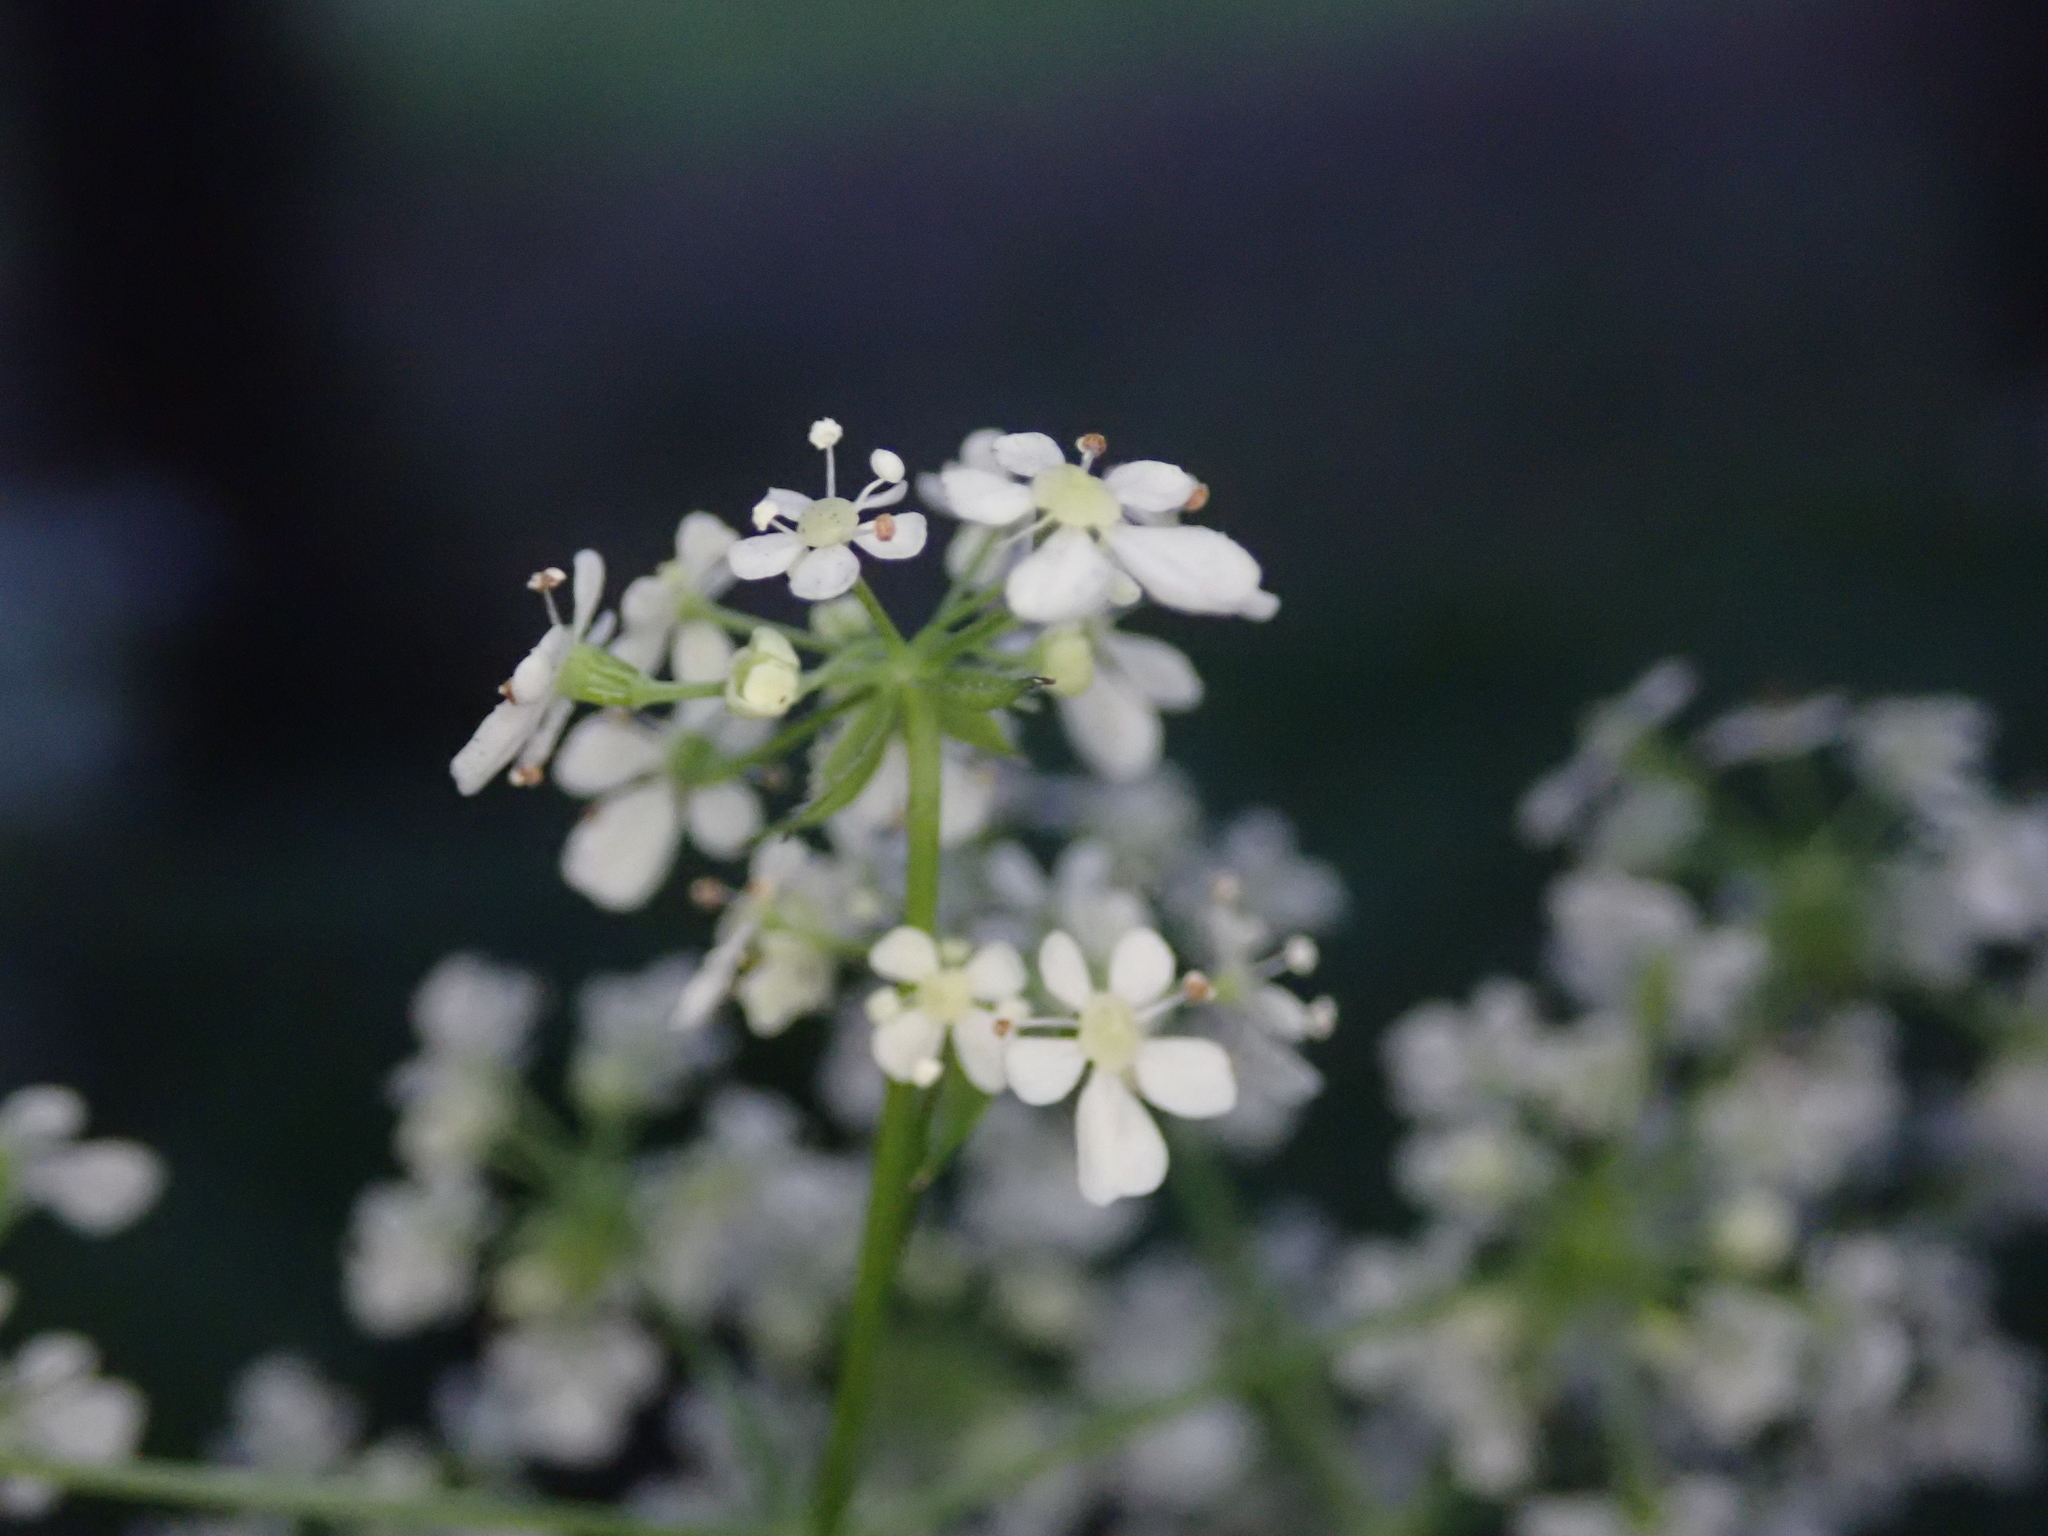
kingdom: Plantae
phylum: Tracheophyta
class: Magnoliopsida
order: Apiales
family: Apiaceae
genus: Anthriscus
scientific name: Anthriscus sylvestris
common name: Cow parsley
